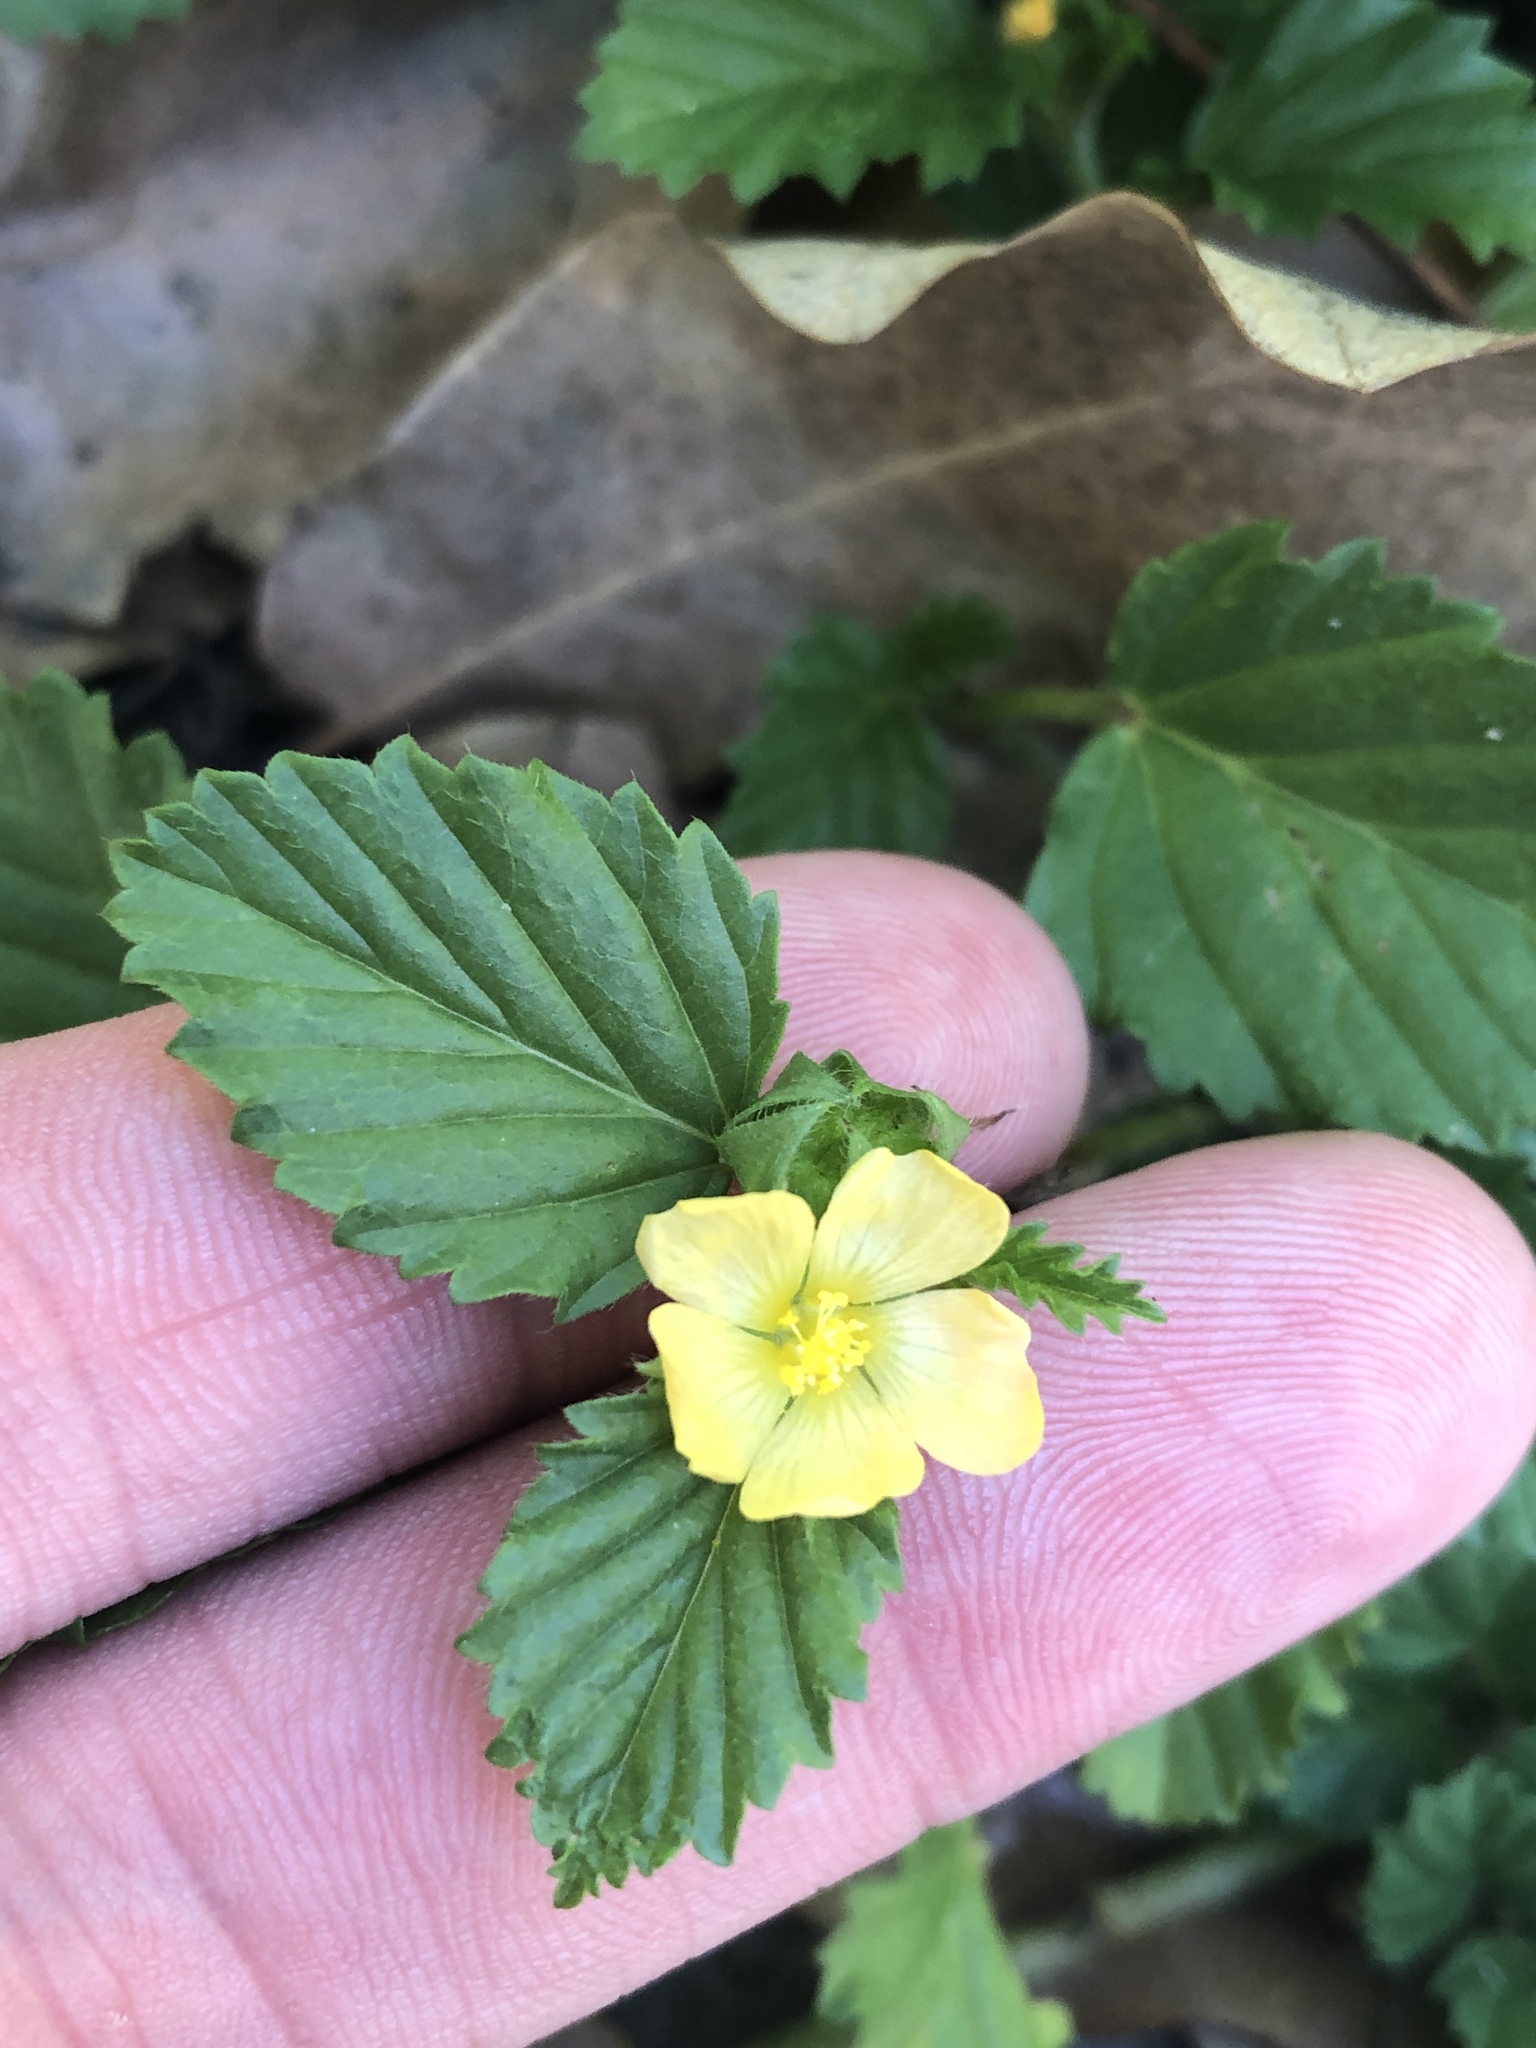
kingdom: Plantae
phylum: Tracheophyta
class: Magnoliopsida
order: Malvales
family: Malvaceae
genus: Malvastrum
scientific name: Malvastrum coromandelianum
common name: Threelobe false mallow
